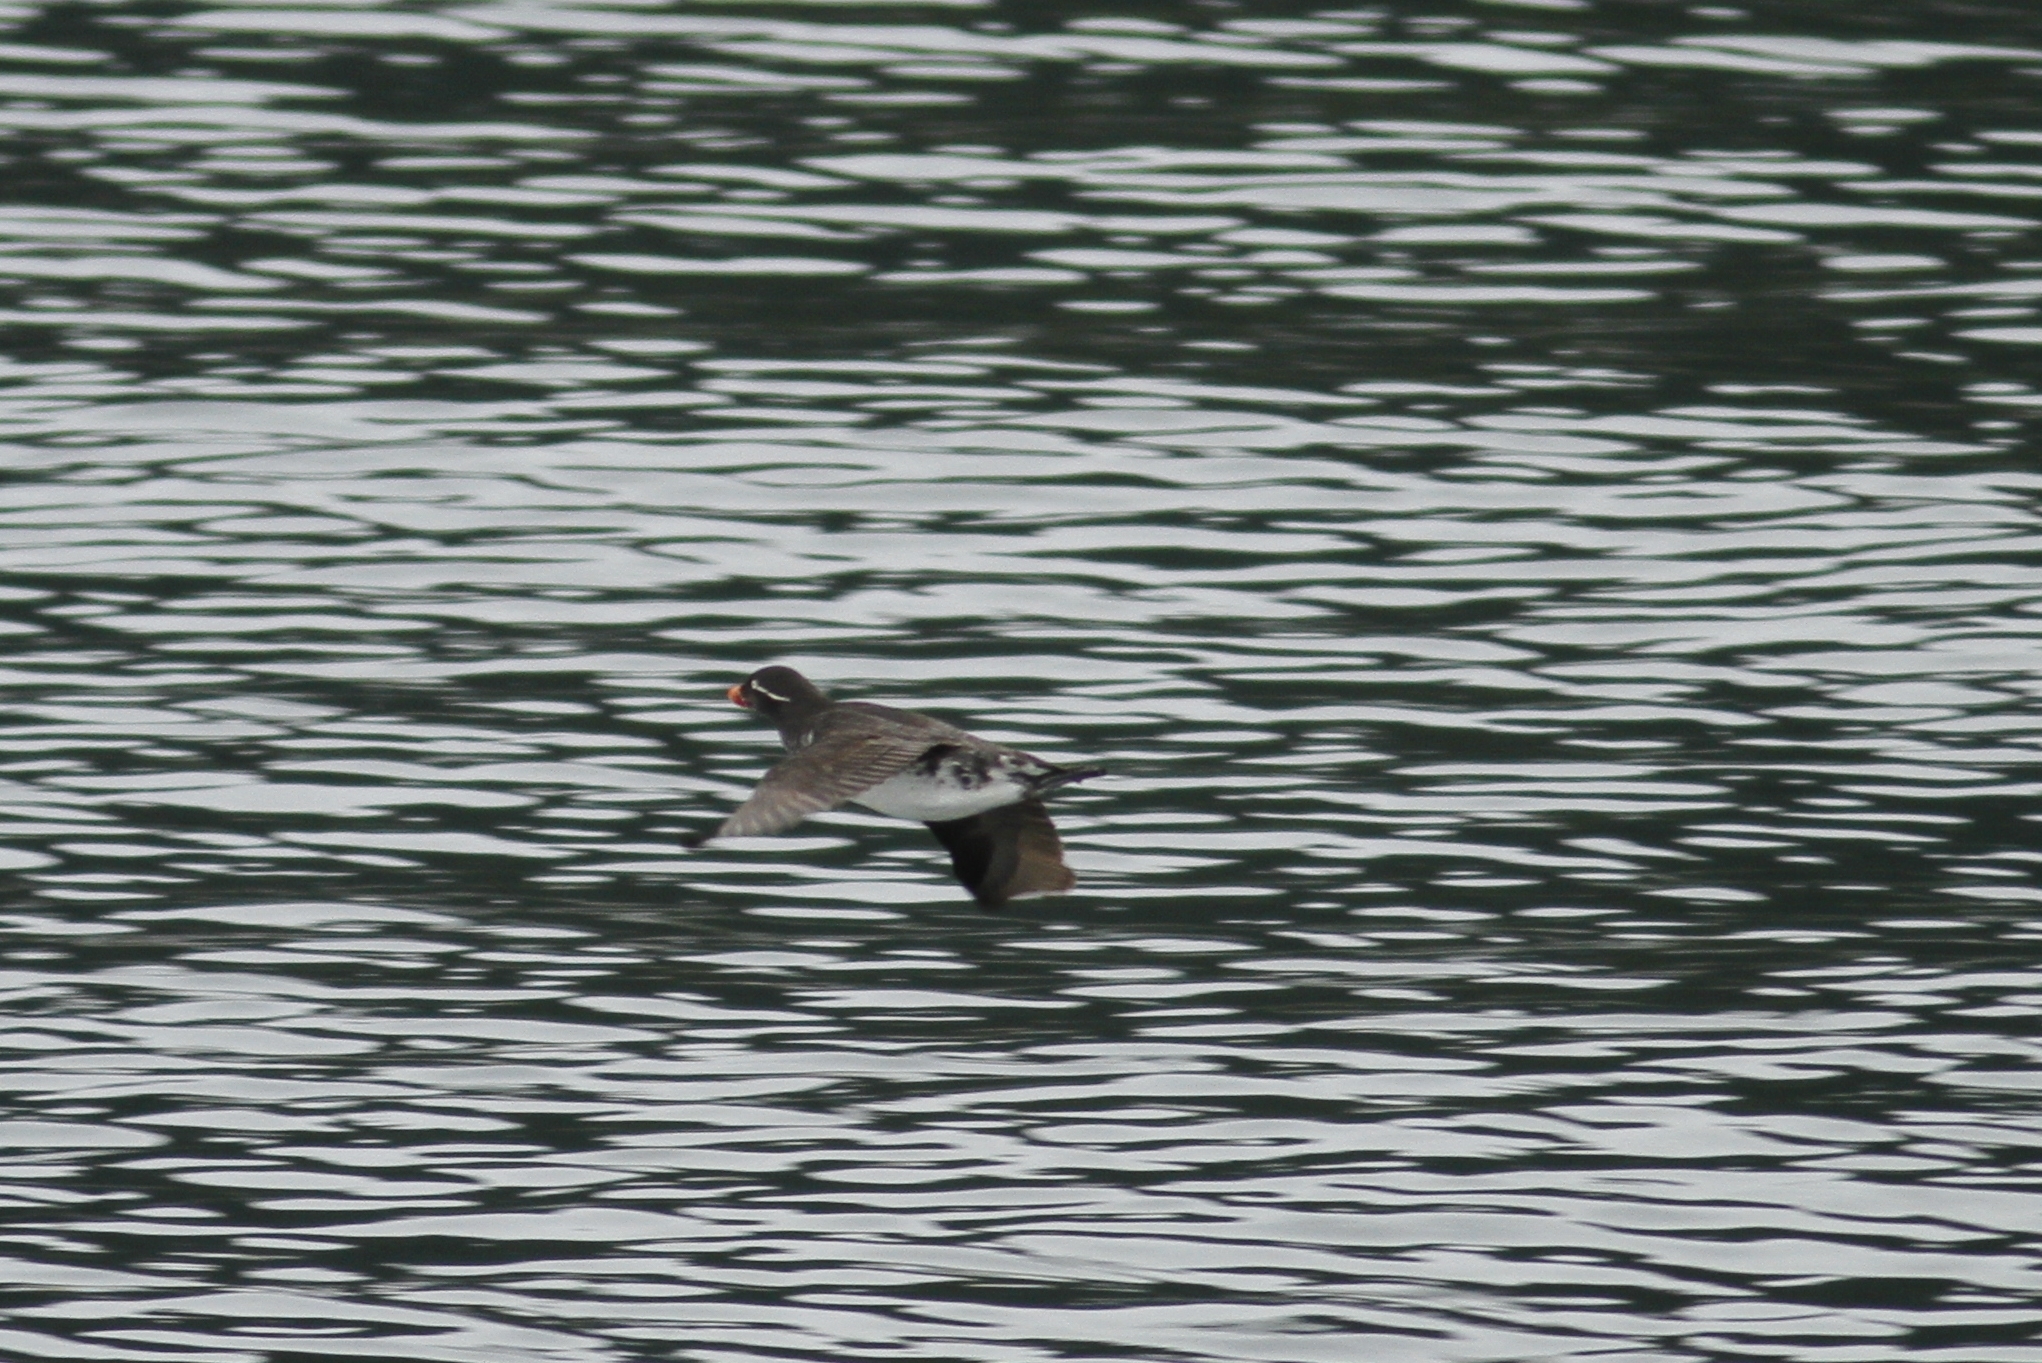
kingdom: Animalia
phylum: Chordata
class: Aves
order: Charadriiformes
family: Alcidae
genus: Aethia
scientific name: Aethia psittacula
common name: Parakeet auklet
